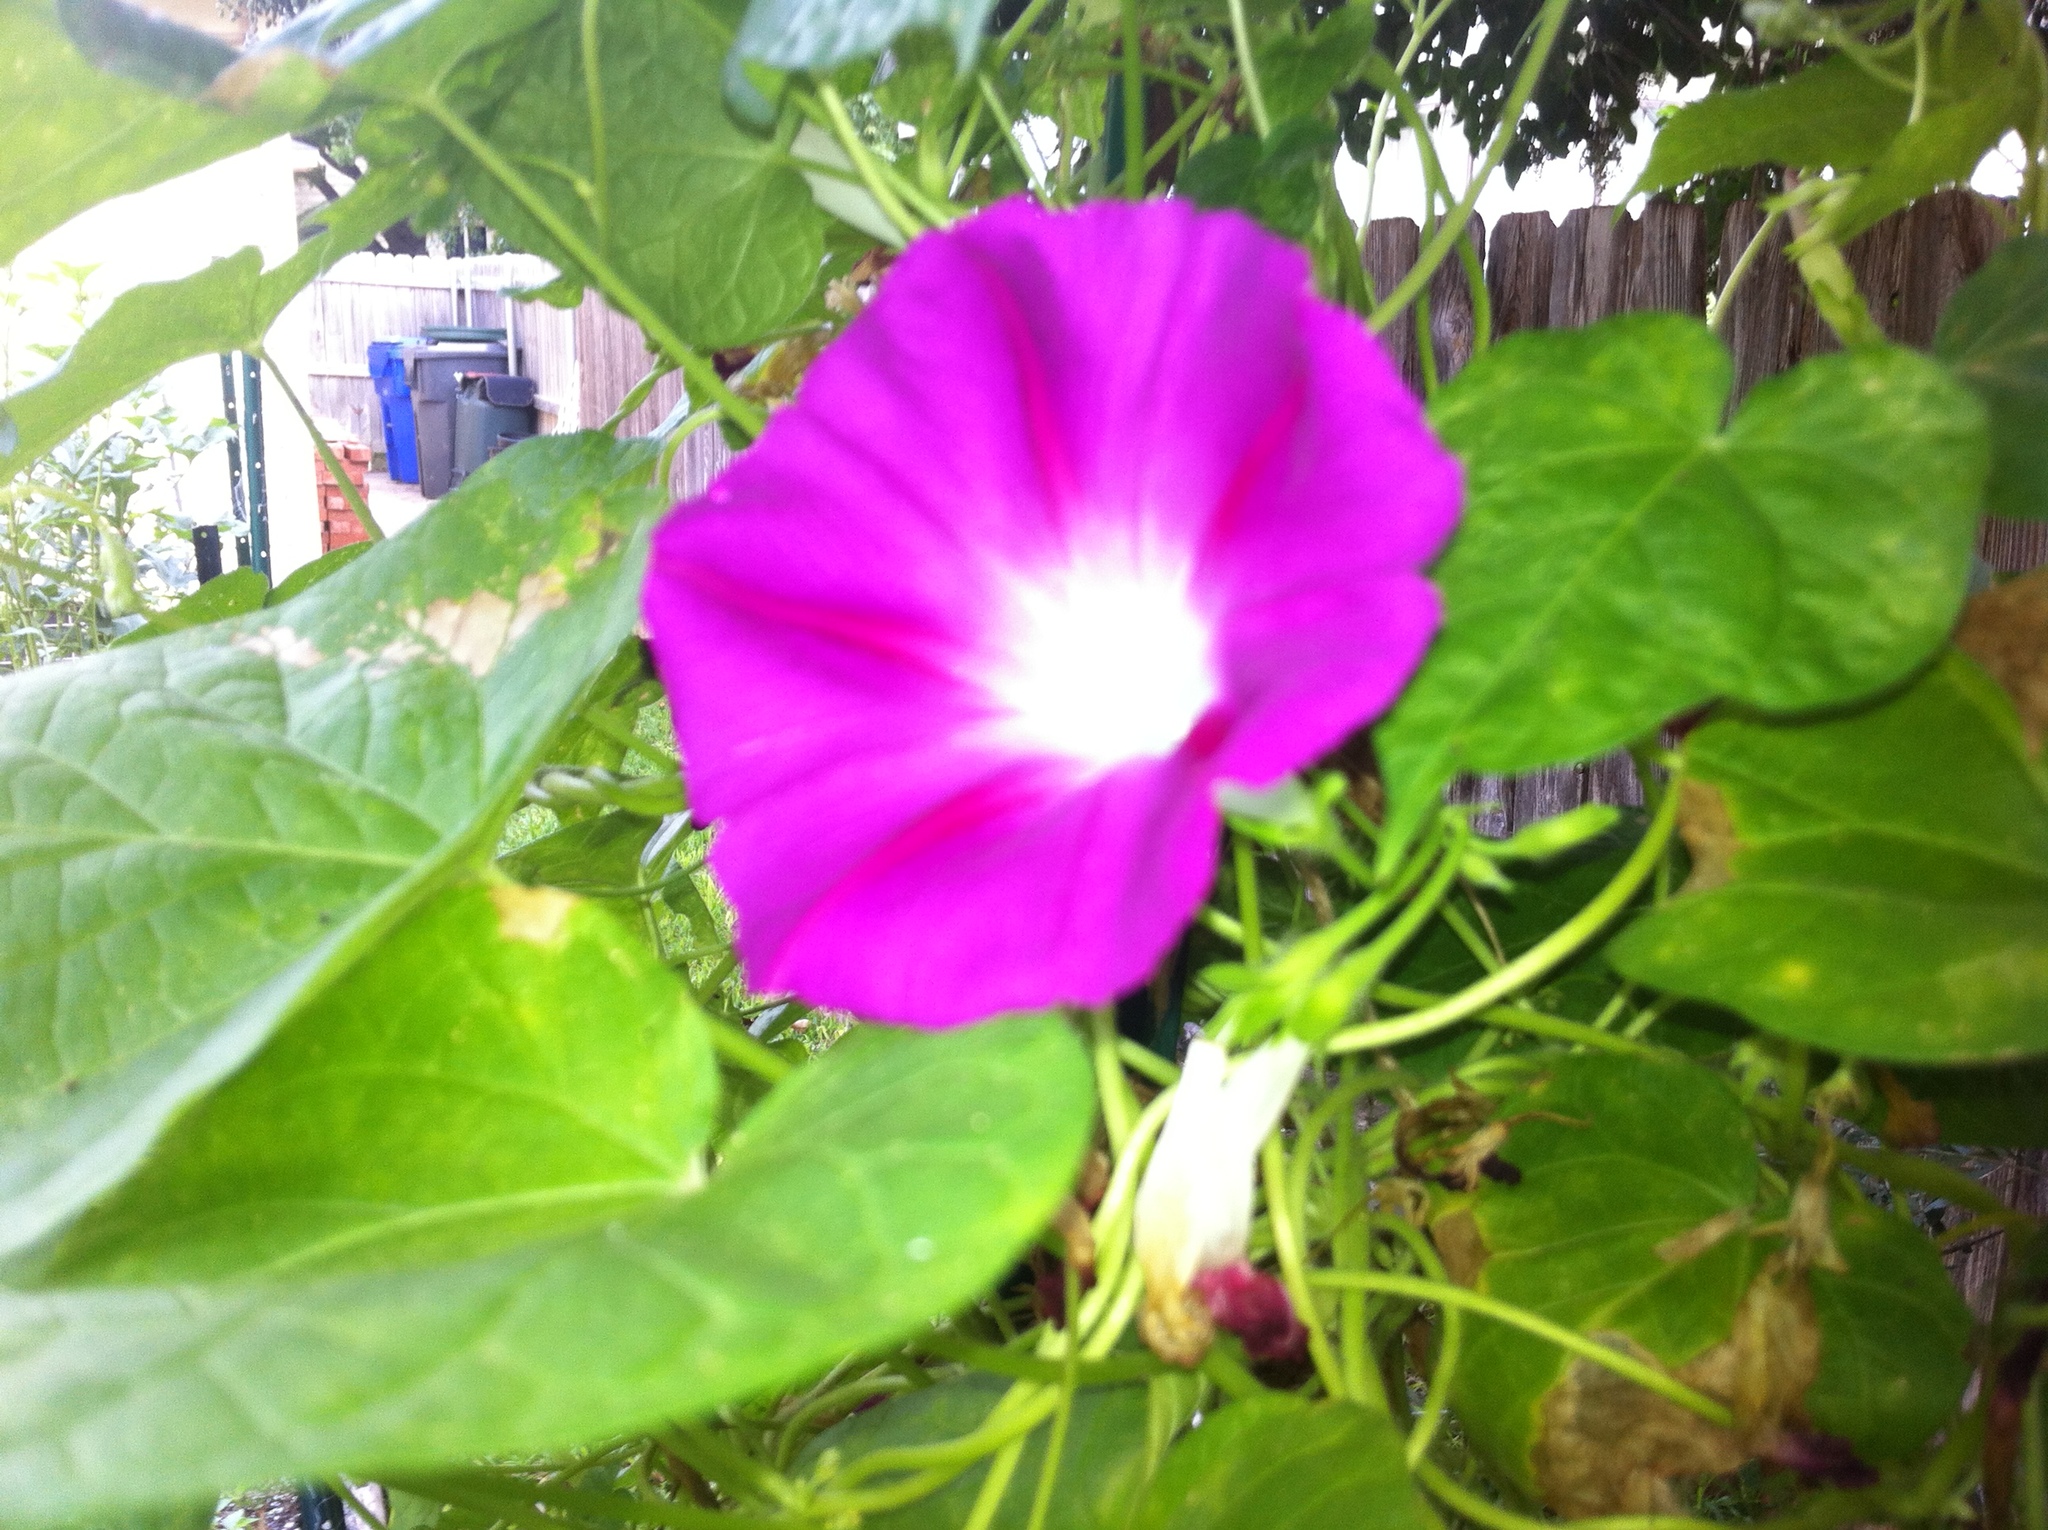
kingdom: Plantae
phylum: Tracheophyta
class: Magnoliopsida
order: Solanales
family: Convolvulaceae
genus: Ipomoea
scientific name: Ipomoea purpurea
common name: Common morning-glory
